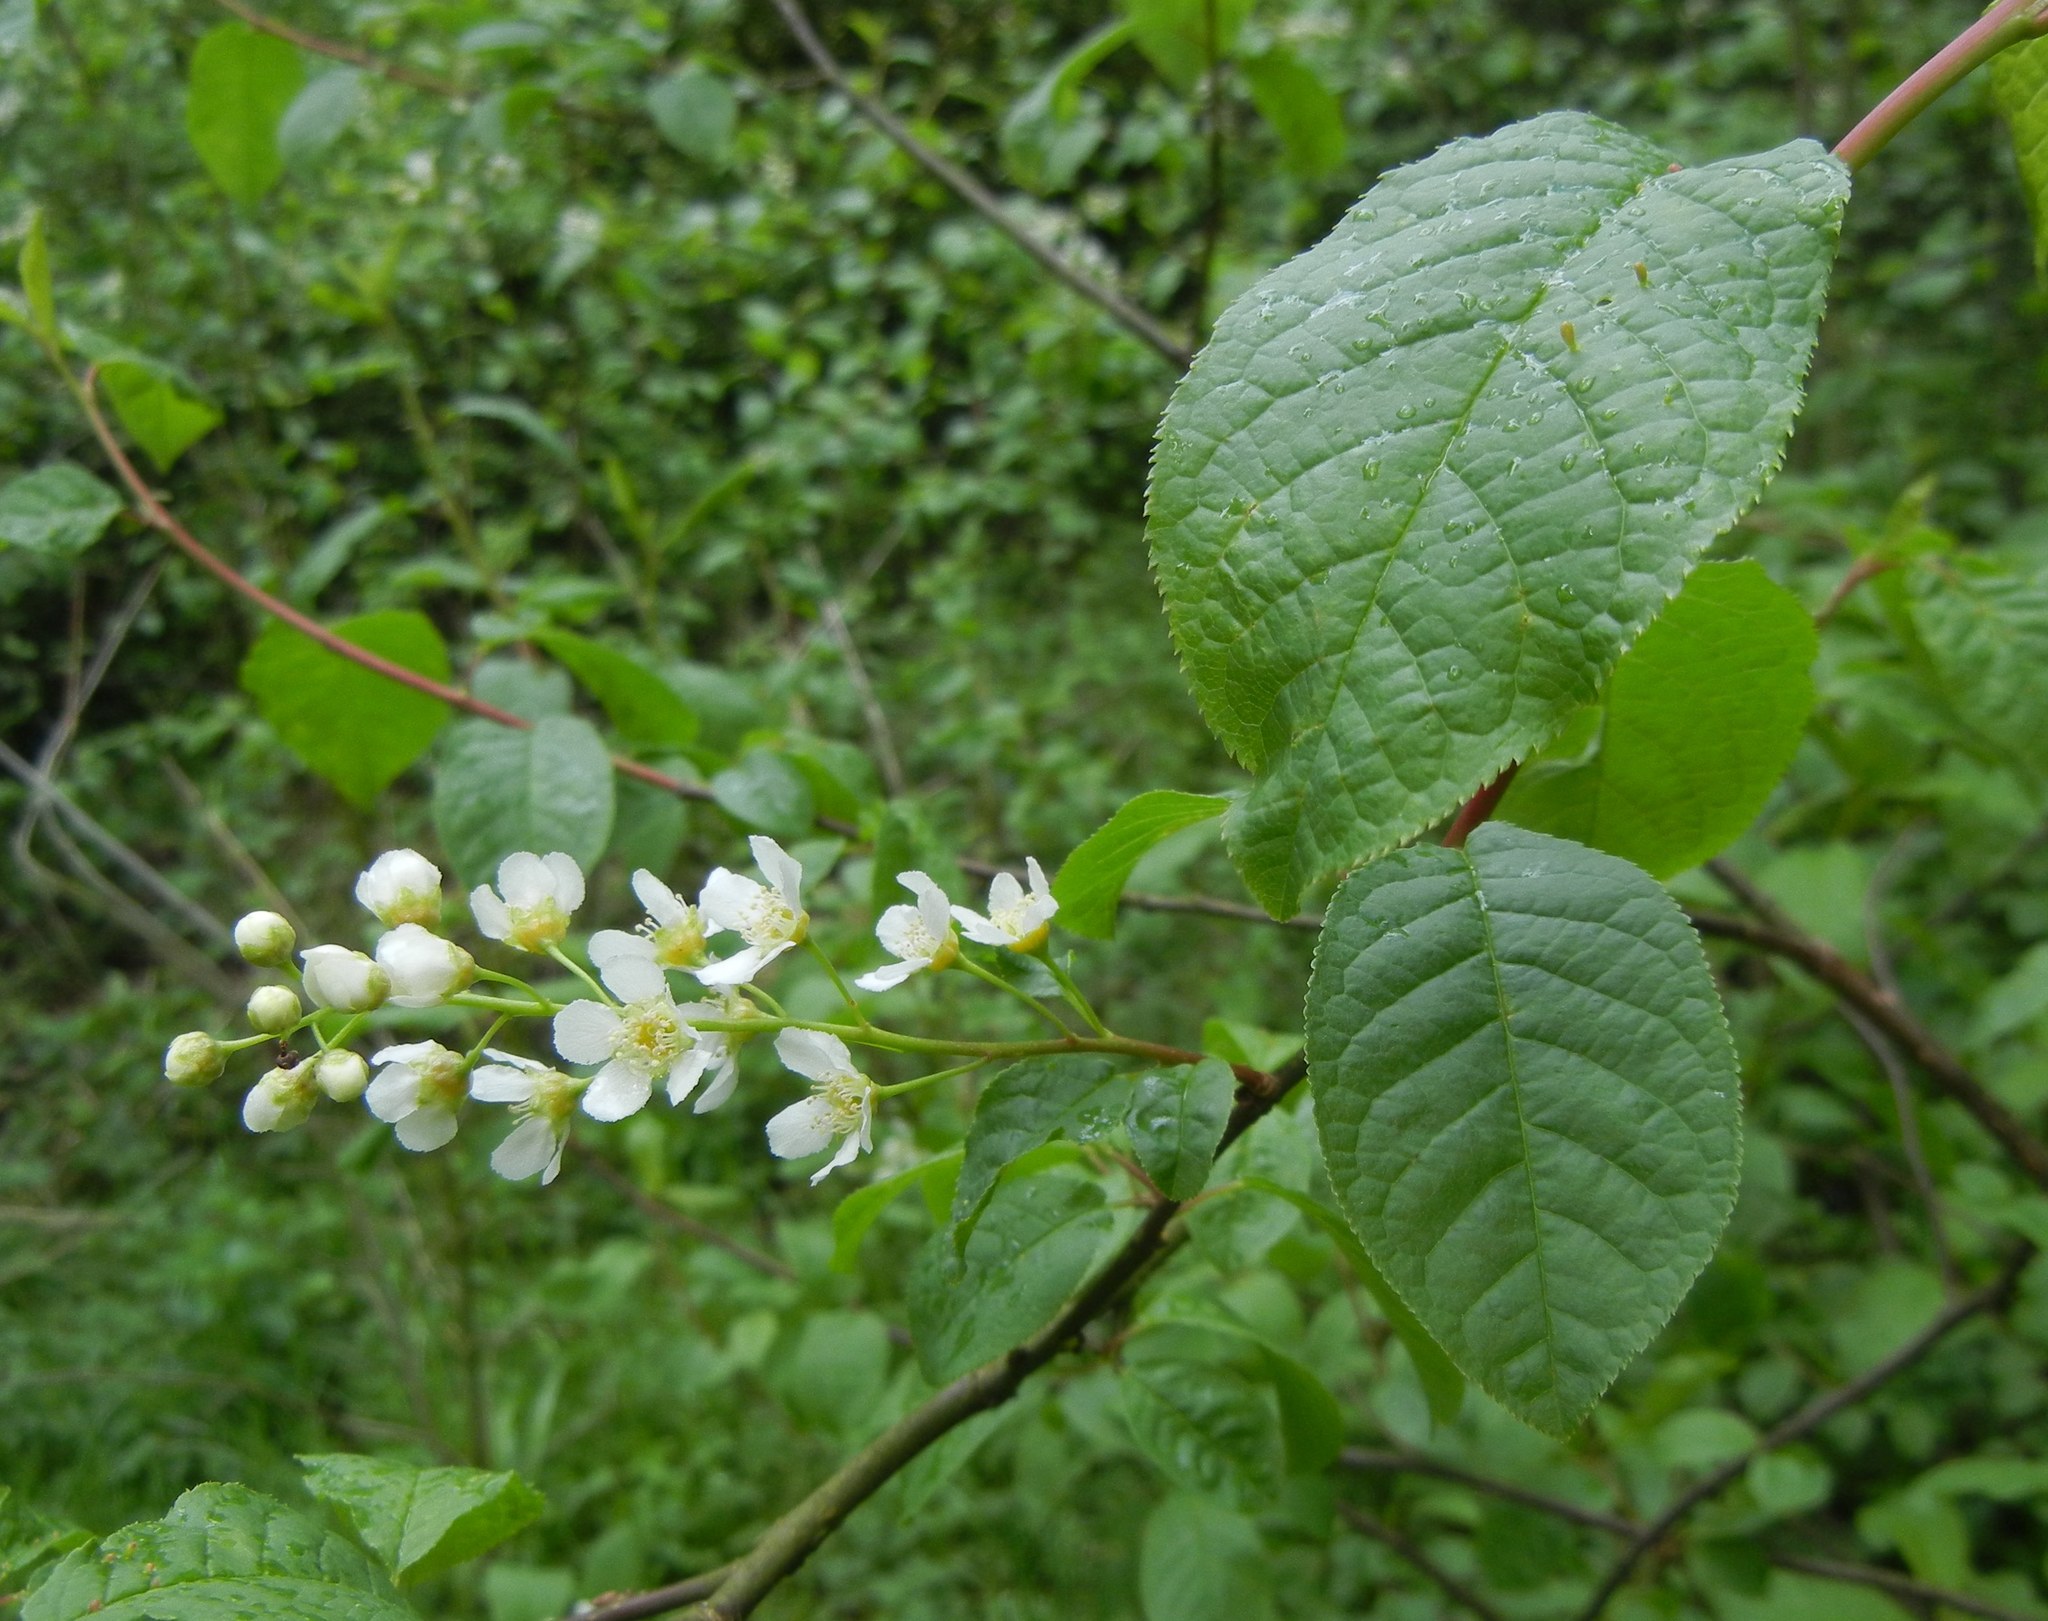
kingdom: Plantae
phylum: Tracheophyta
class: Magnoliopsida
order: Rosales
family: Rosaceae
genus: Prunus
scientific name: Prunus padus
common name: Bird cherry
